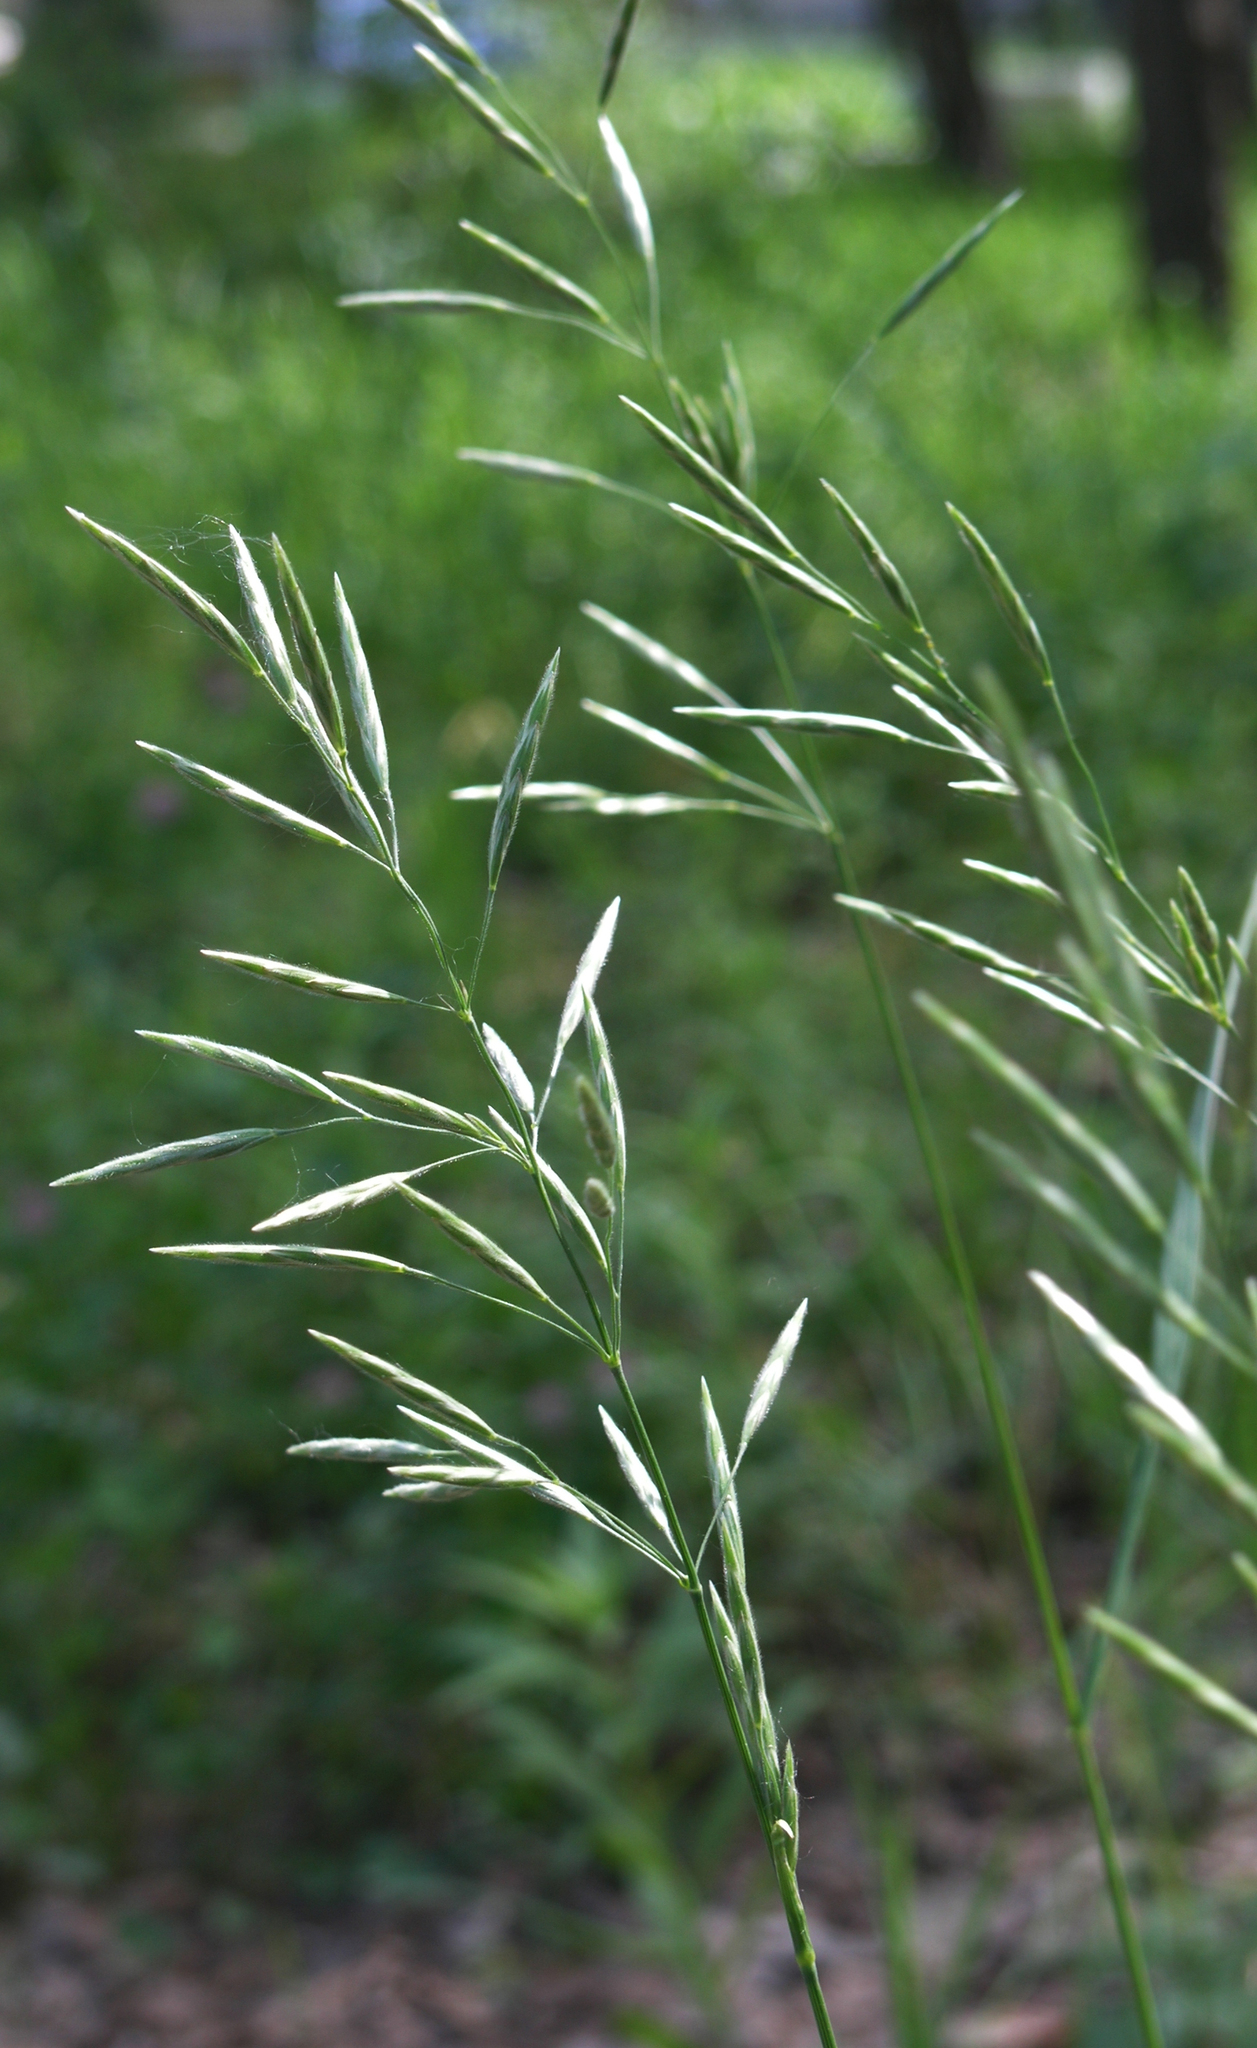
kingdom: Plantae
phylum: Tracheophyta
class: Liliopsida
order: Poales
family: Poaceae
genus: Bromus
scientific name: Bromus inermis
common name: Smooth brome
